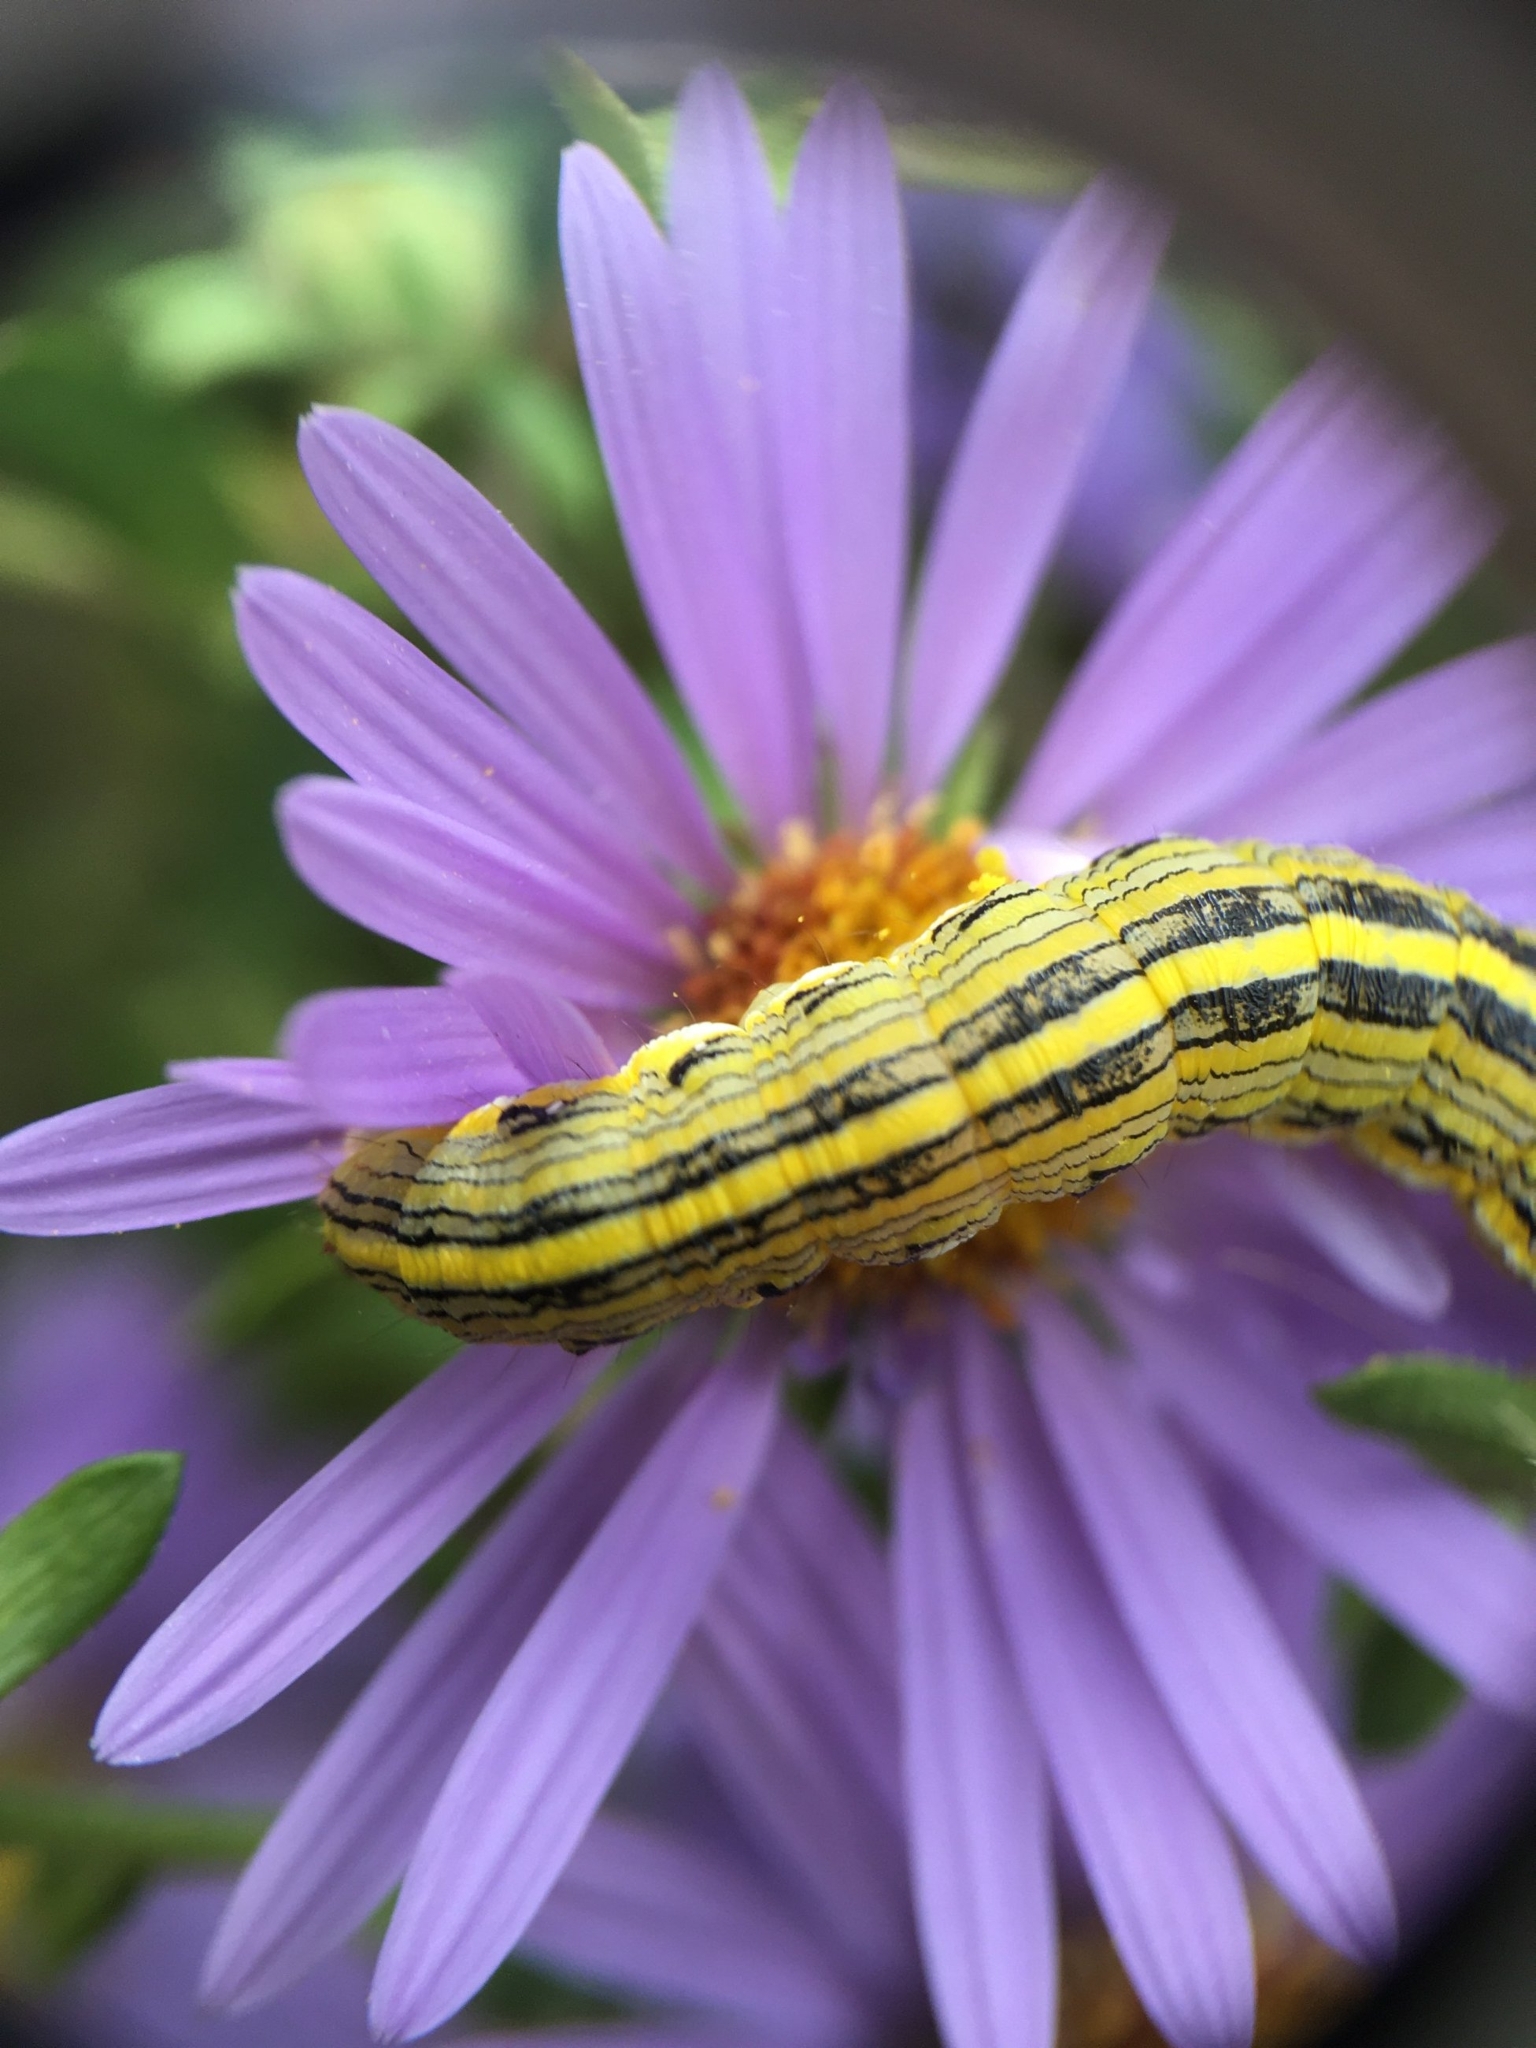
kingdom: Animalia
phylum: Arthropoda
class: Insecta
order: Lepidoptera
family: Noctuidae
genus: Cucullia
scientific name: Cucullia asteroides
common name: Asteroid moth
